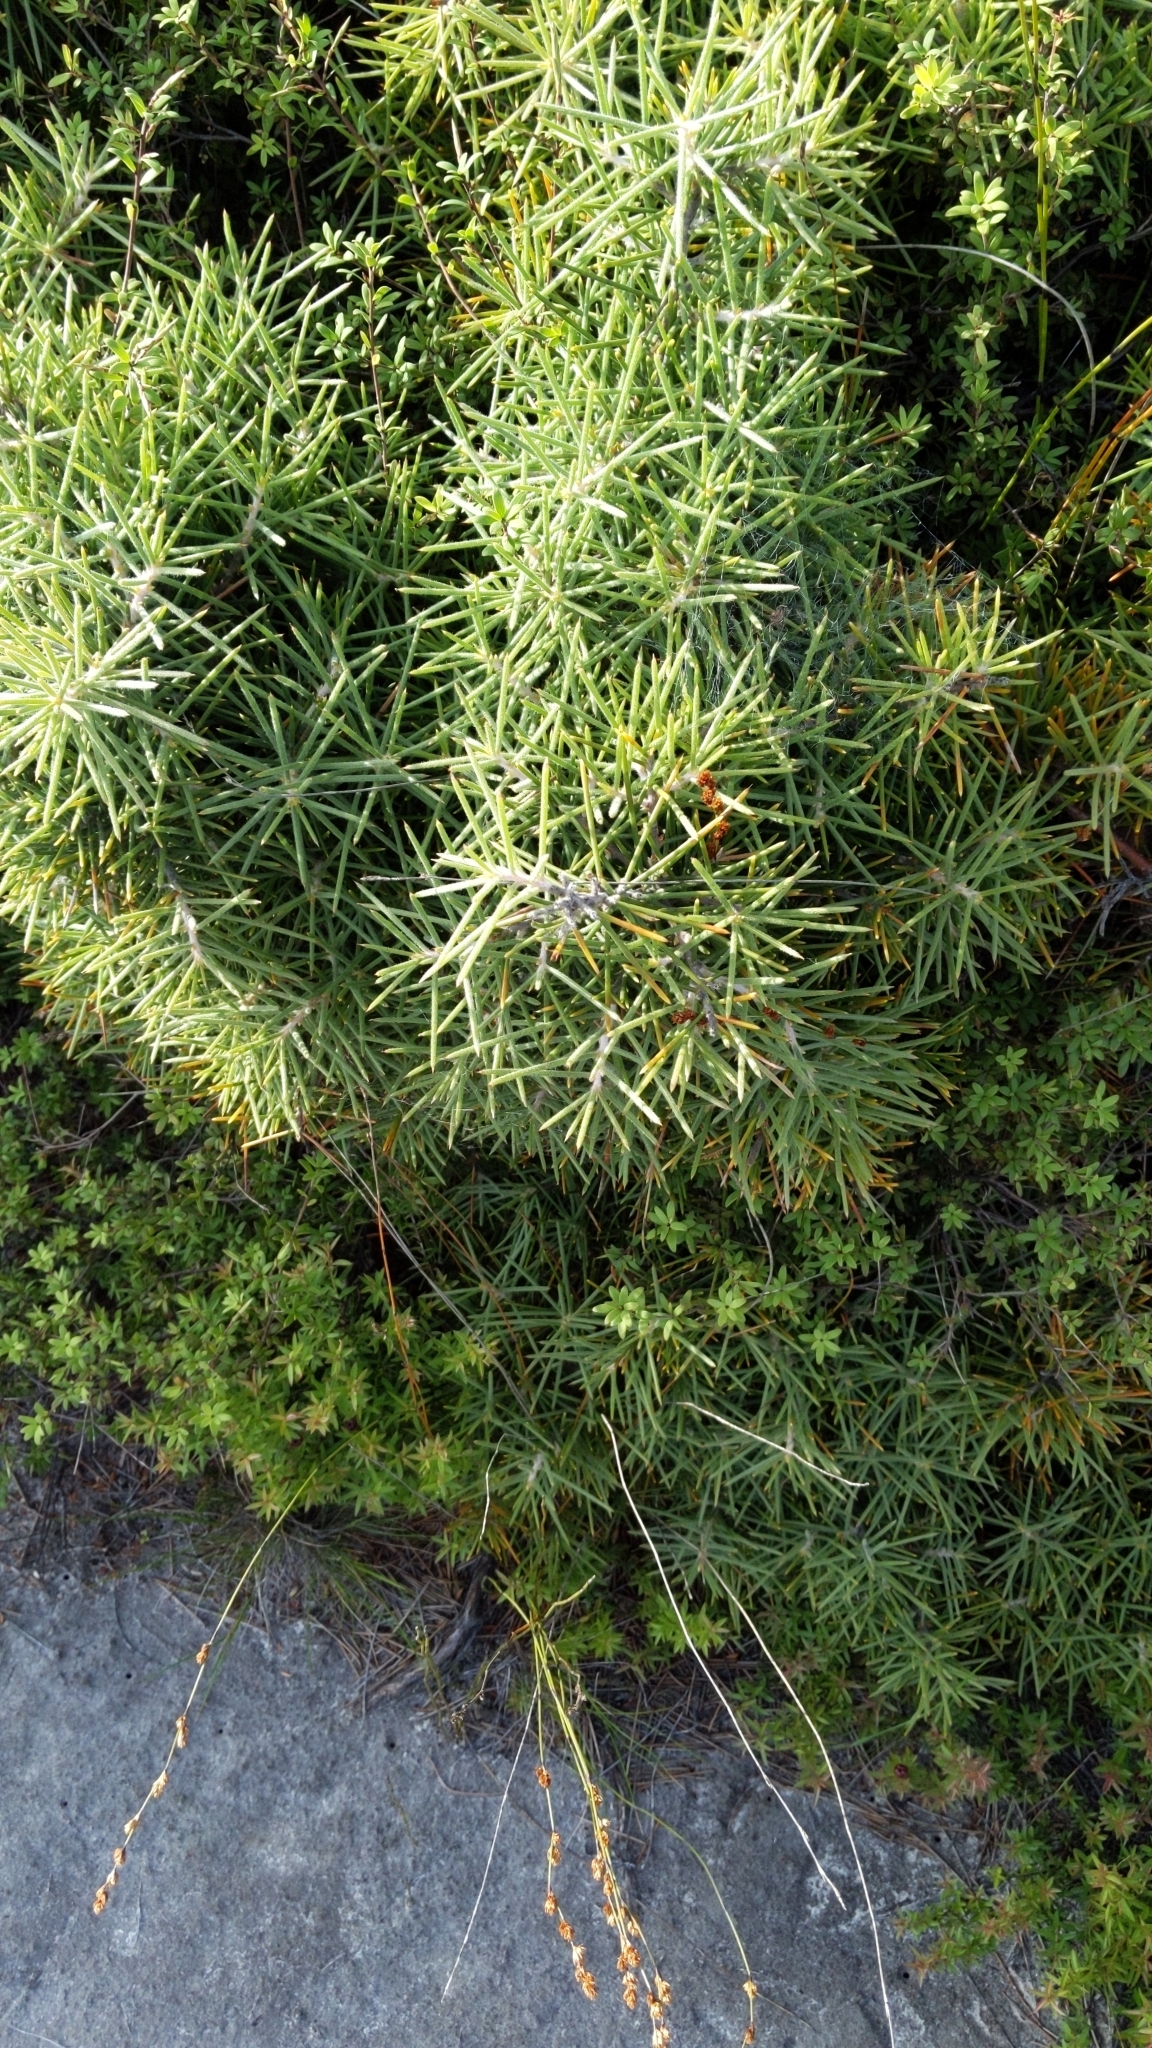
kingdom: Plantae
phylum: Tracheophyta
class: Magnoliopsida
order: Proteales
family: Proteaceae
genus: Hakea
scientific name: Hakea gibbosa
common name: Rock hakea
